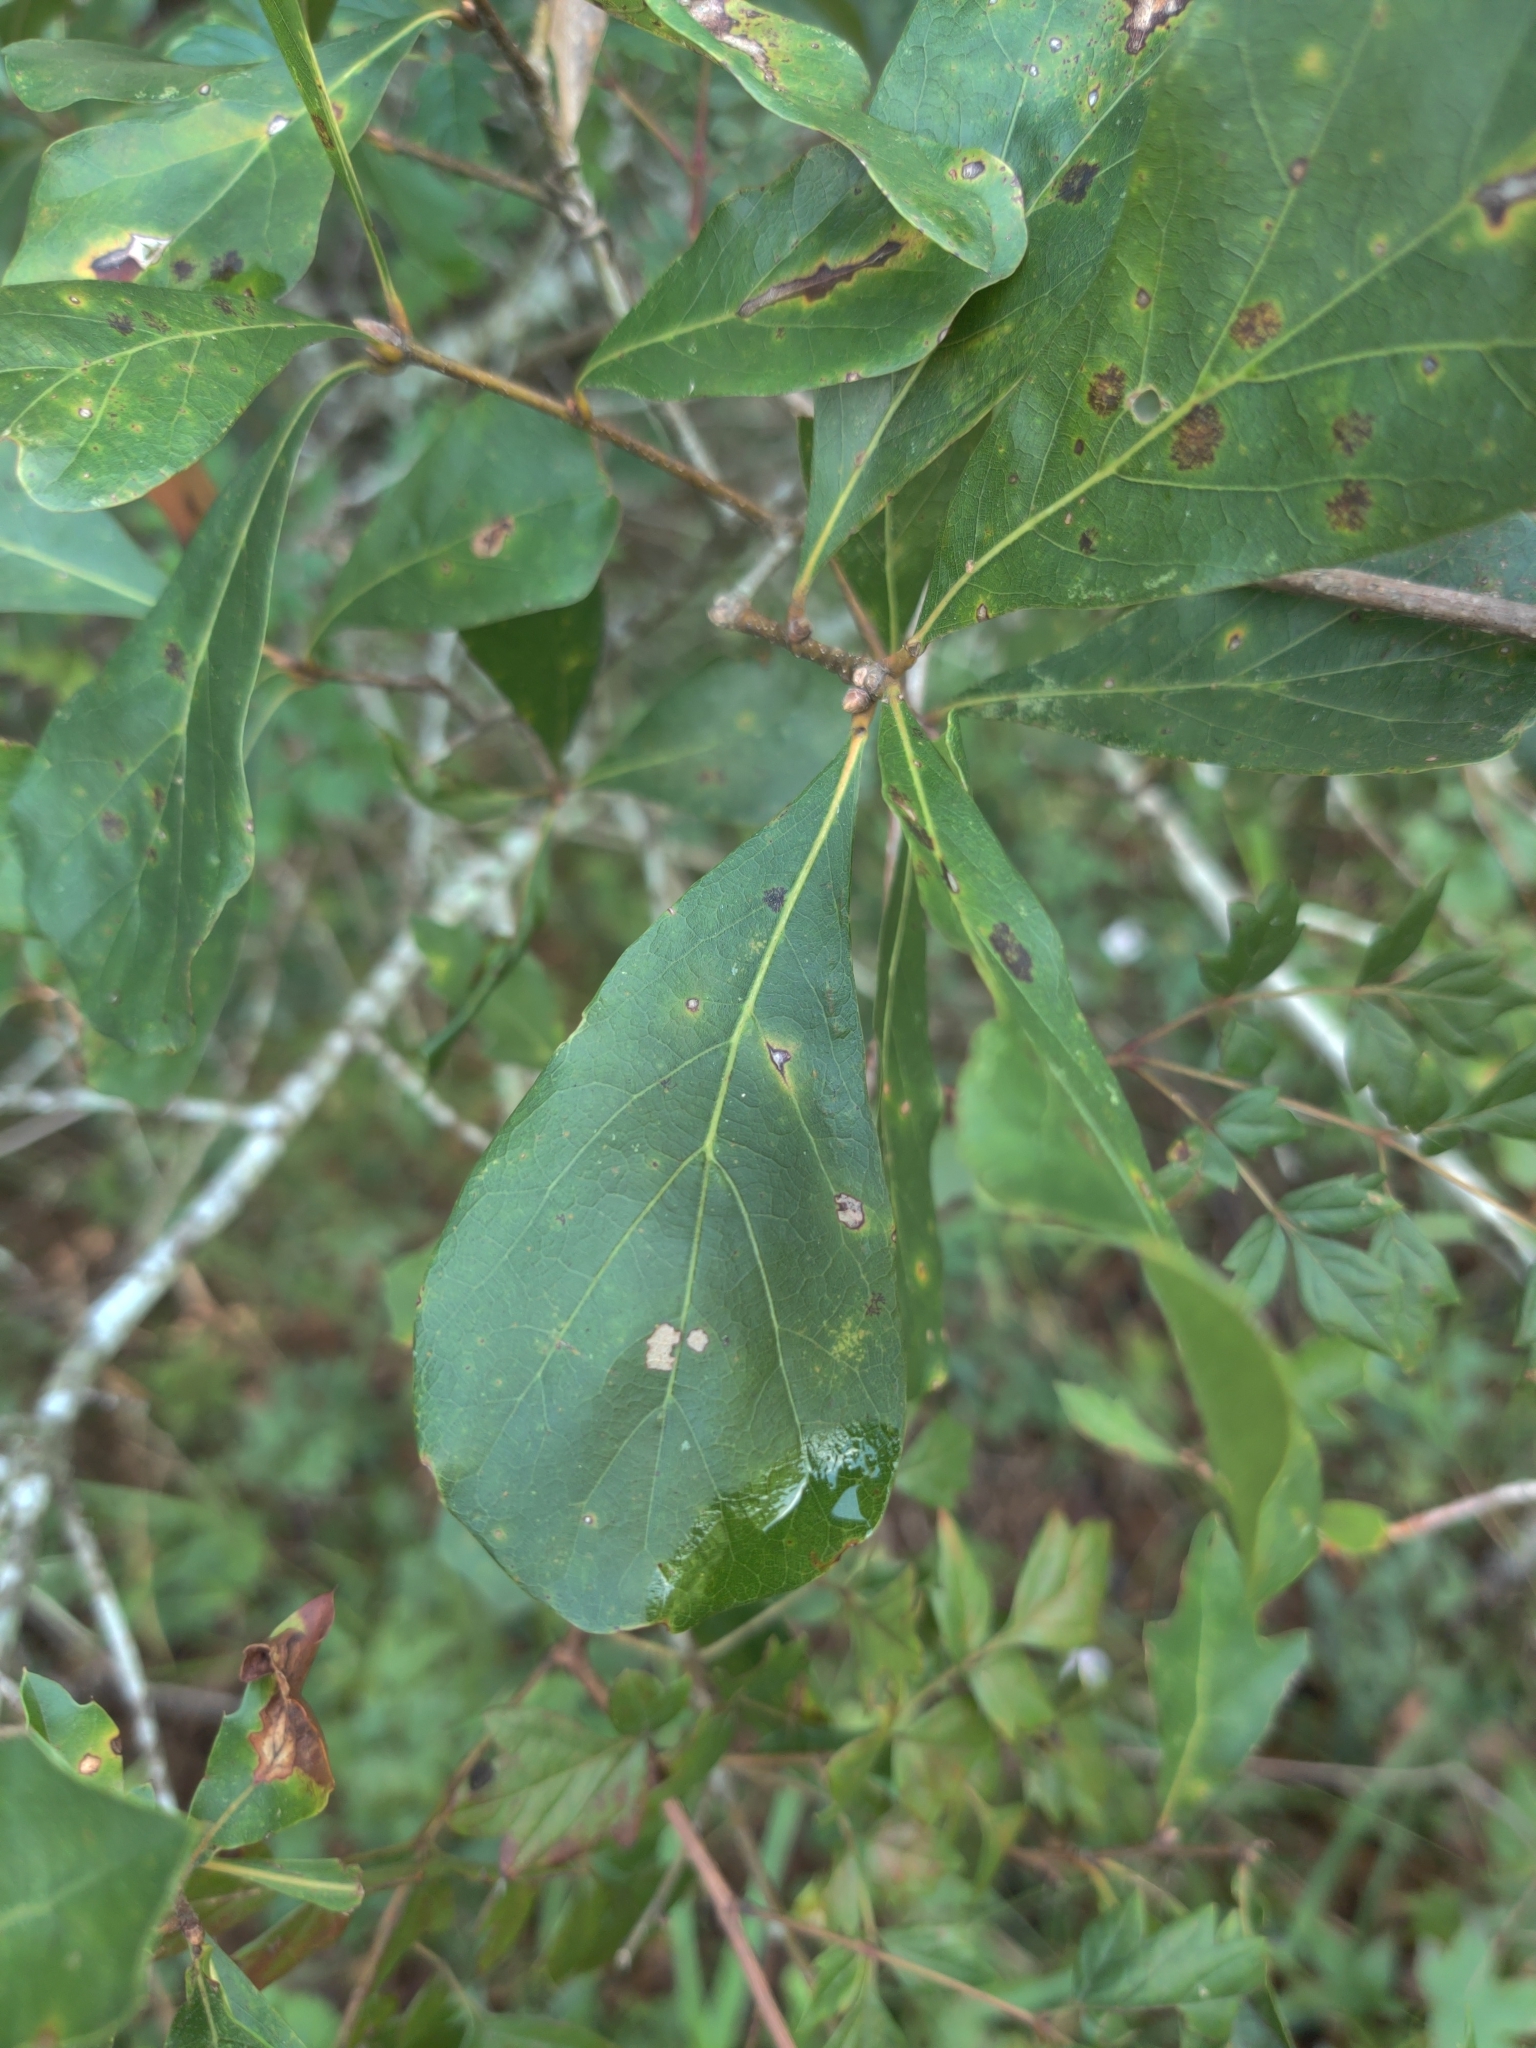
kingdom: Plantae
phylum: Tracheophyta
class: Magnoliopsida
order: Fagales
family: Fagaceae
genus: Quercus
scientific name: Quercus nigra
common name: Water oak
